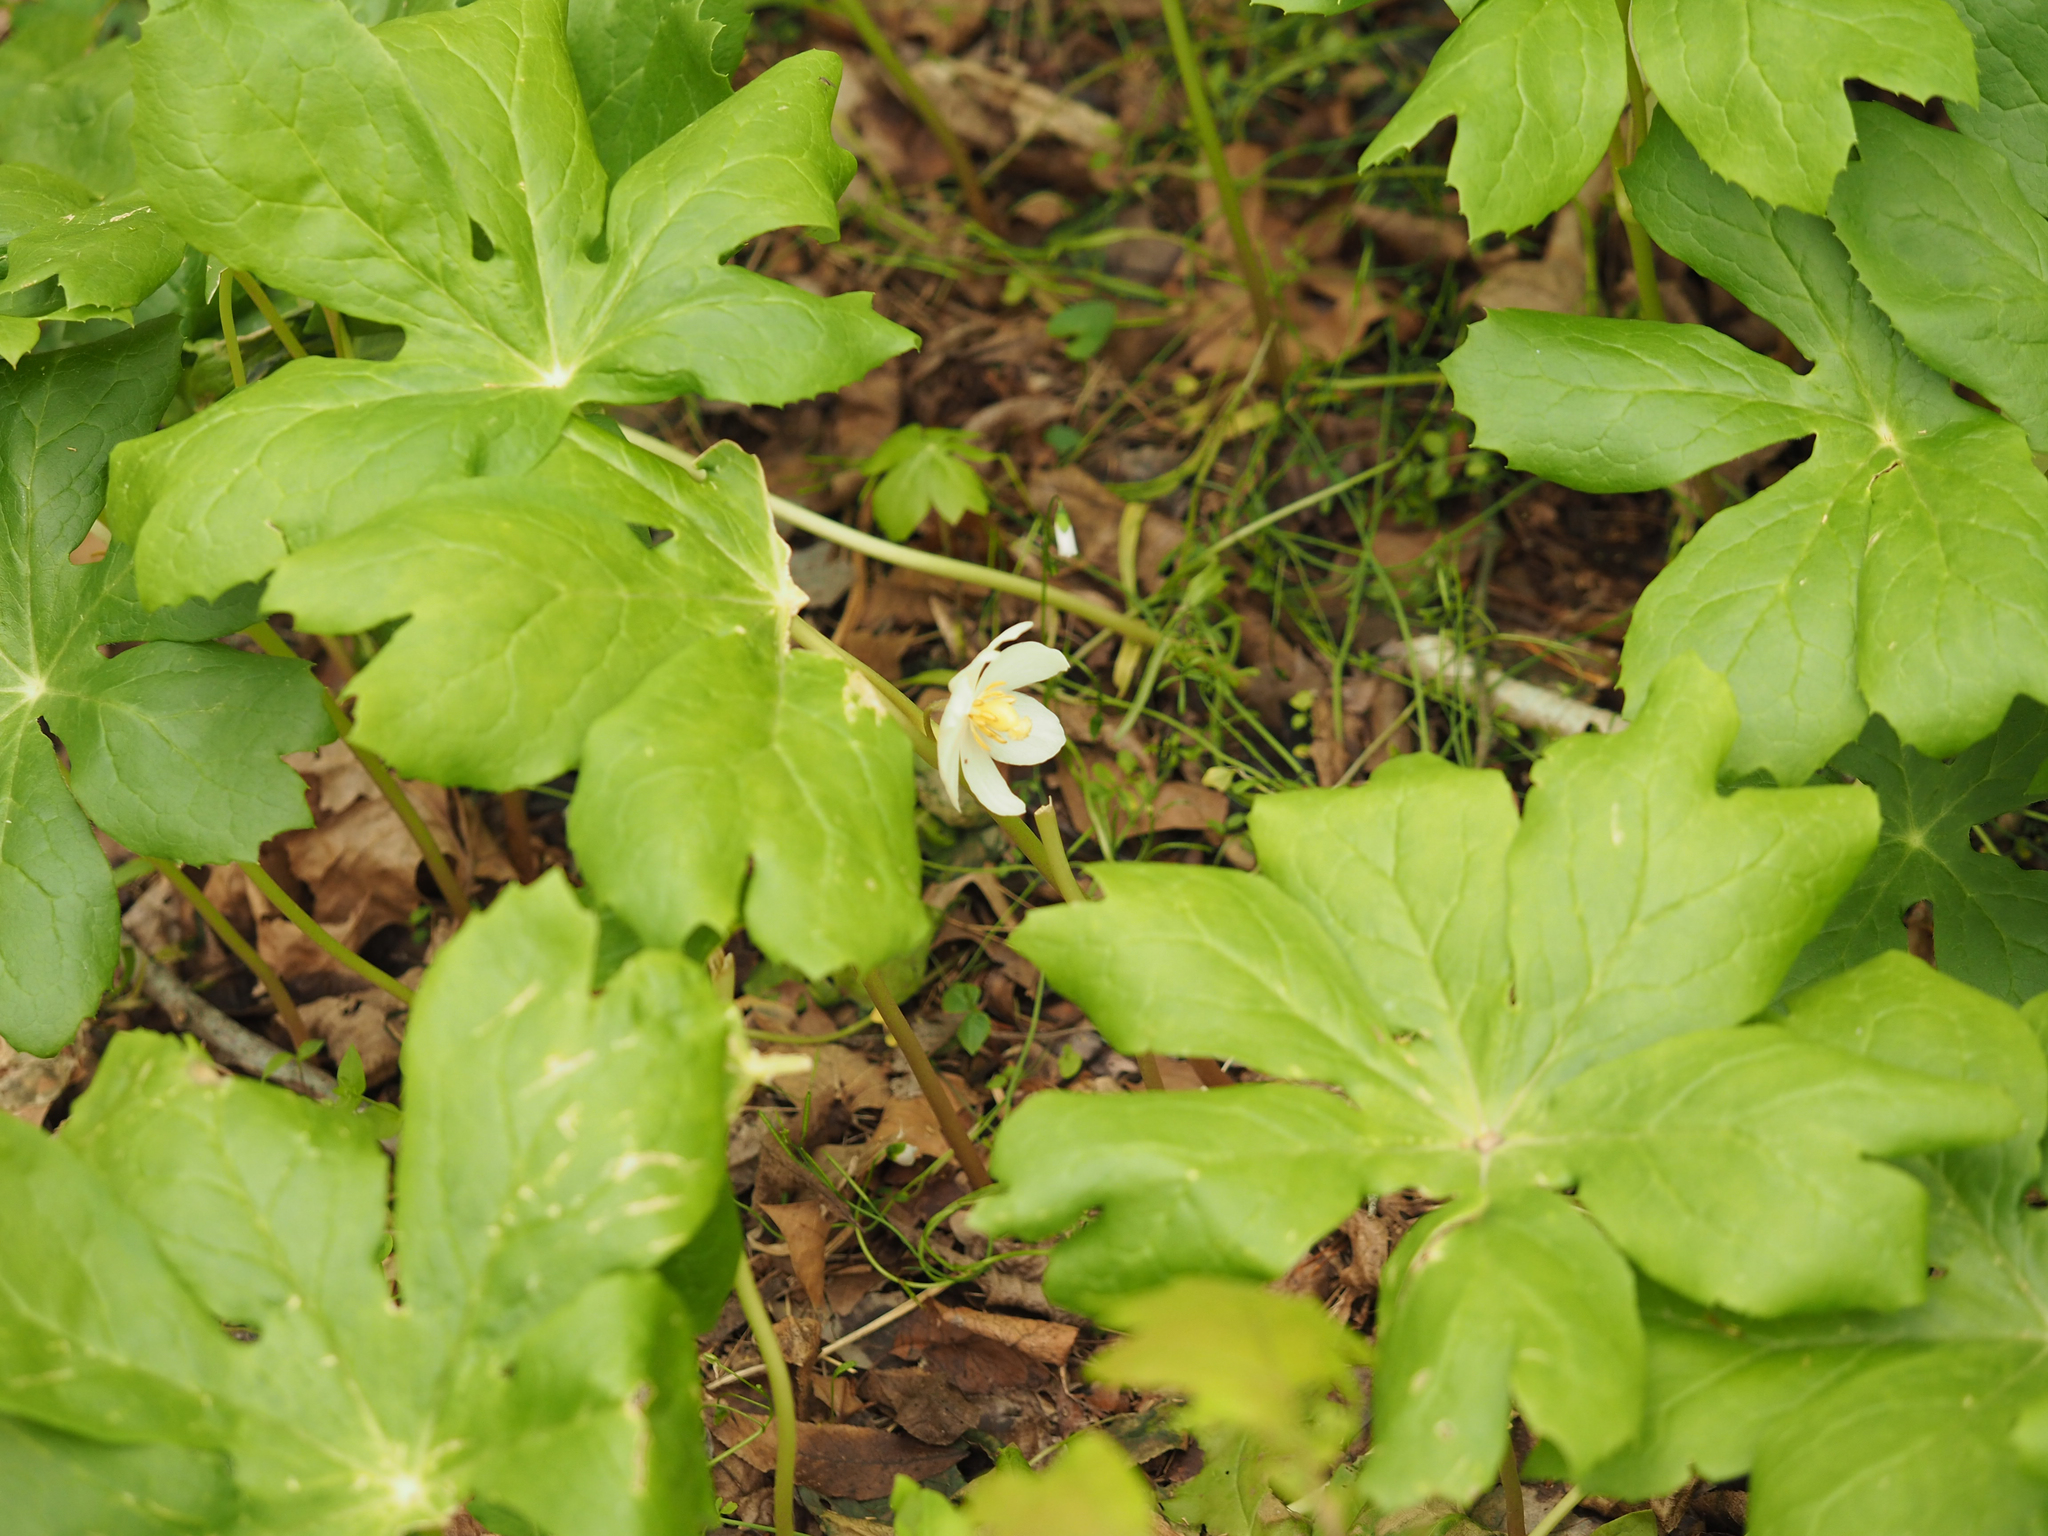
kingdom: Plantae
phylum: Tracheophyta
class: Magnoliopsida
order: Ranunculales
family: Berberidaceae
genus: Podophyllum
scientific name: Podophyllum peltatum
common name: Wild mandrake
